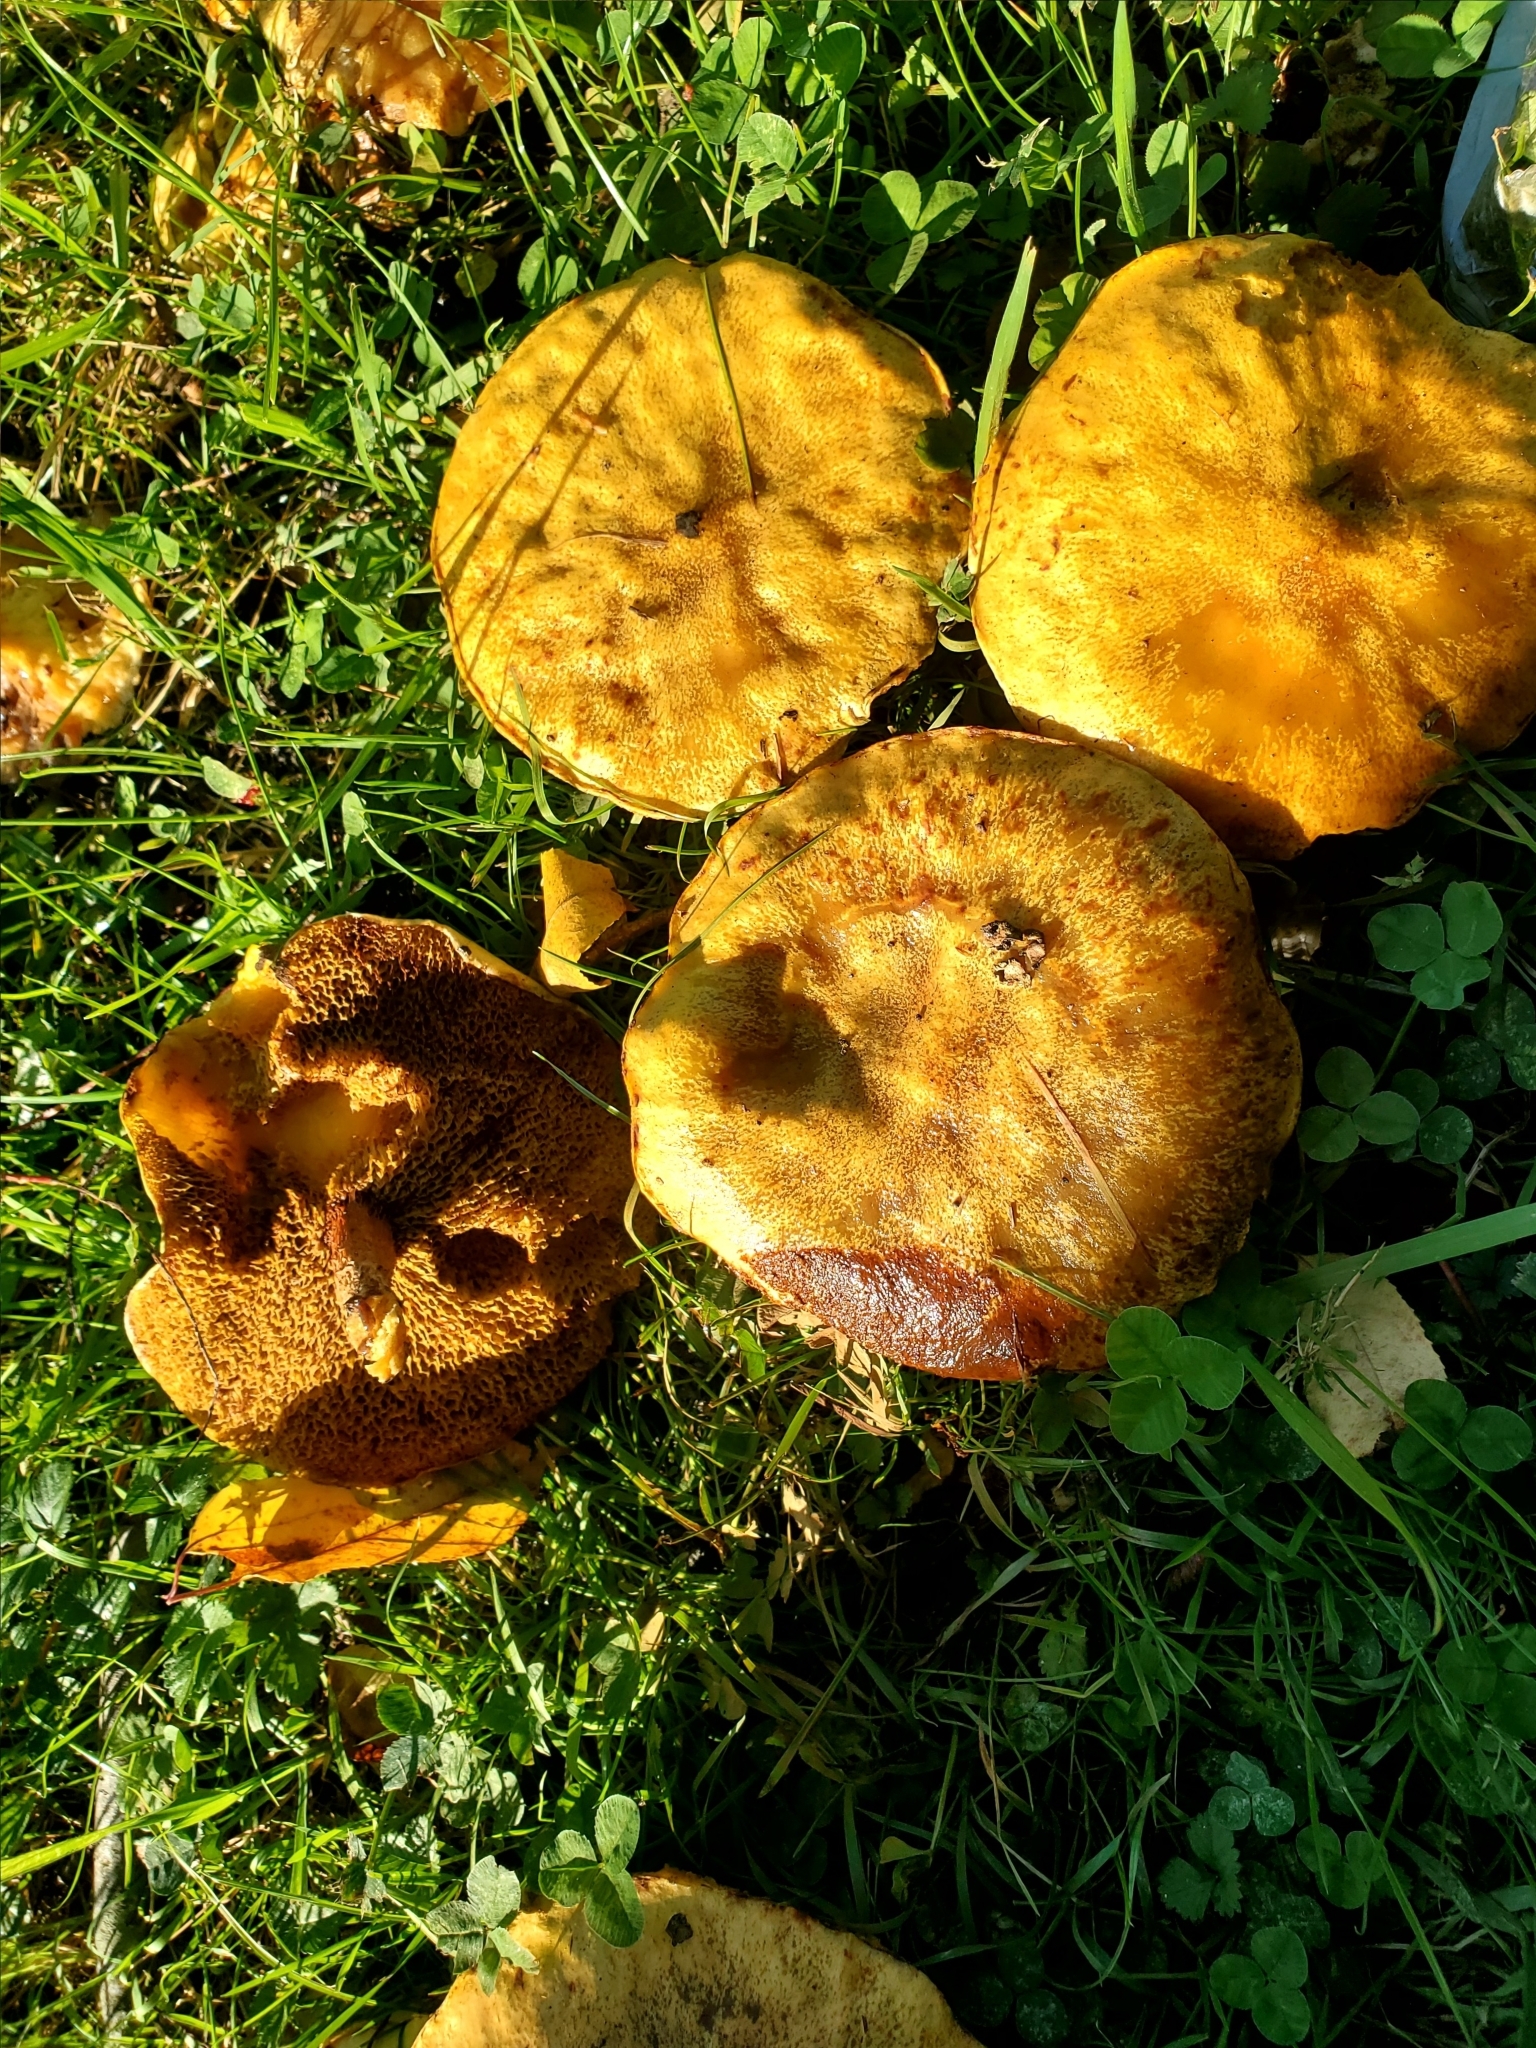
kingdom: Fungi
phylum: Basidiomycota
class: Agaricomycetes
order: Boletales
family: Suillaceae
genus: Suillus
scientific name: Suillus americanus
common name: Chicken fat mushroom
